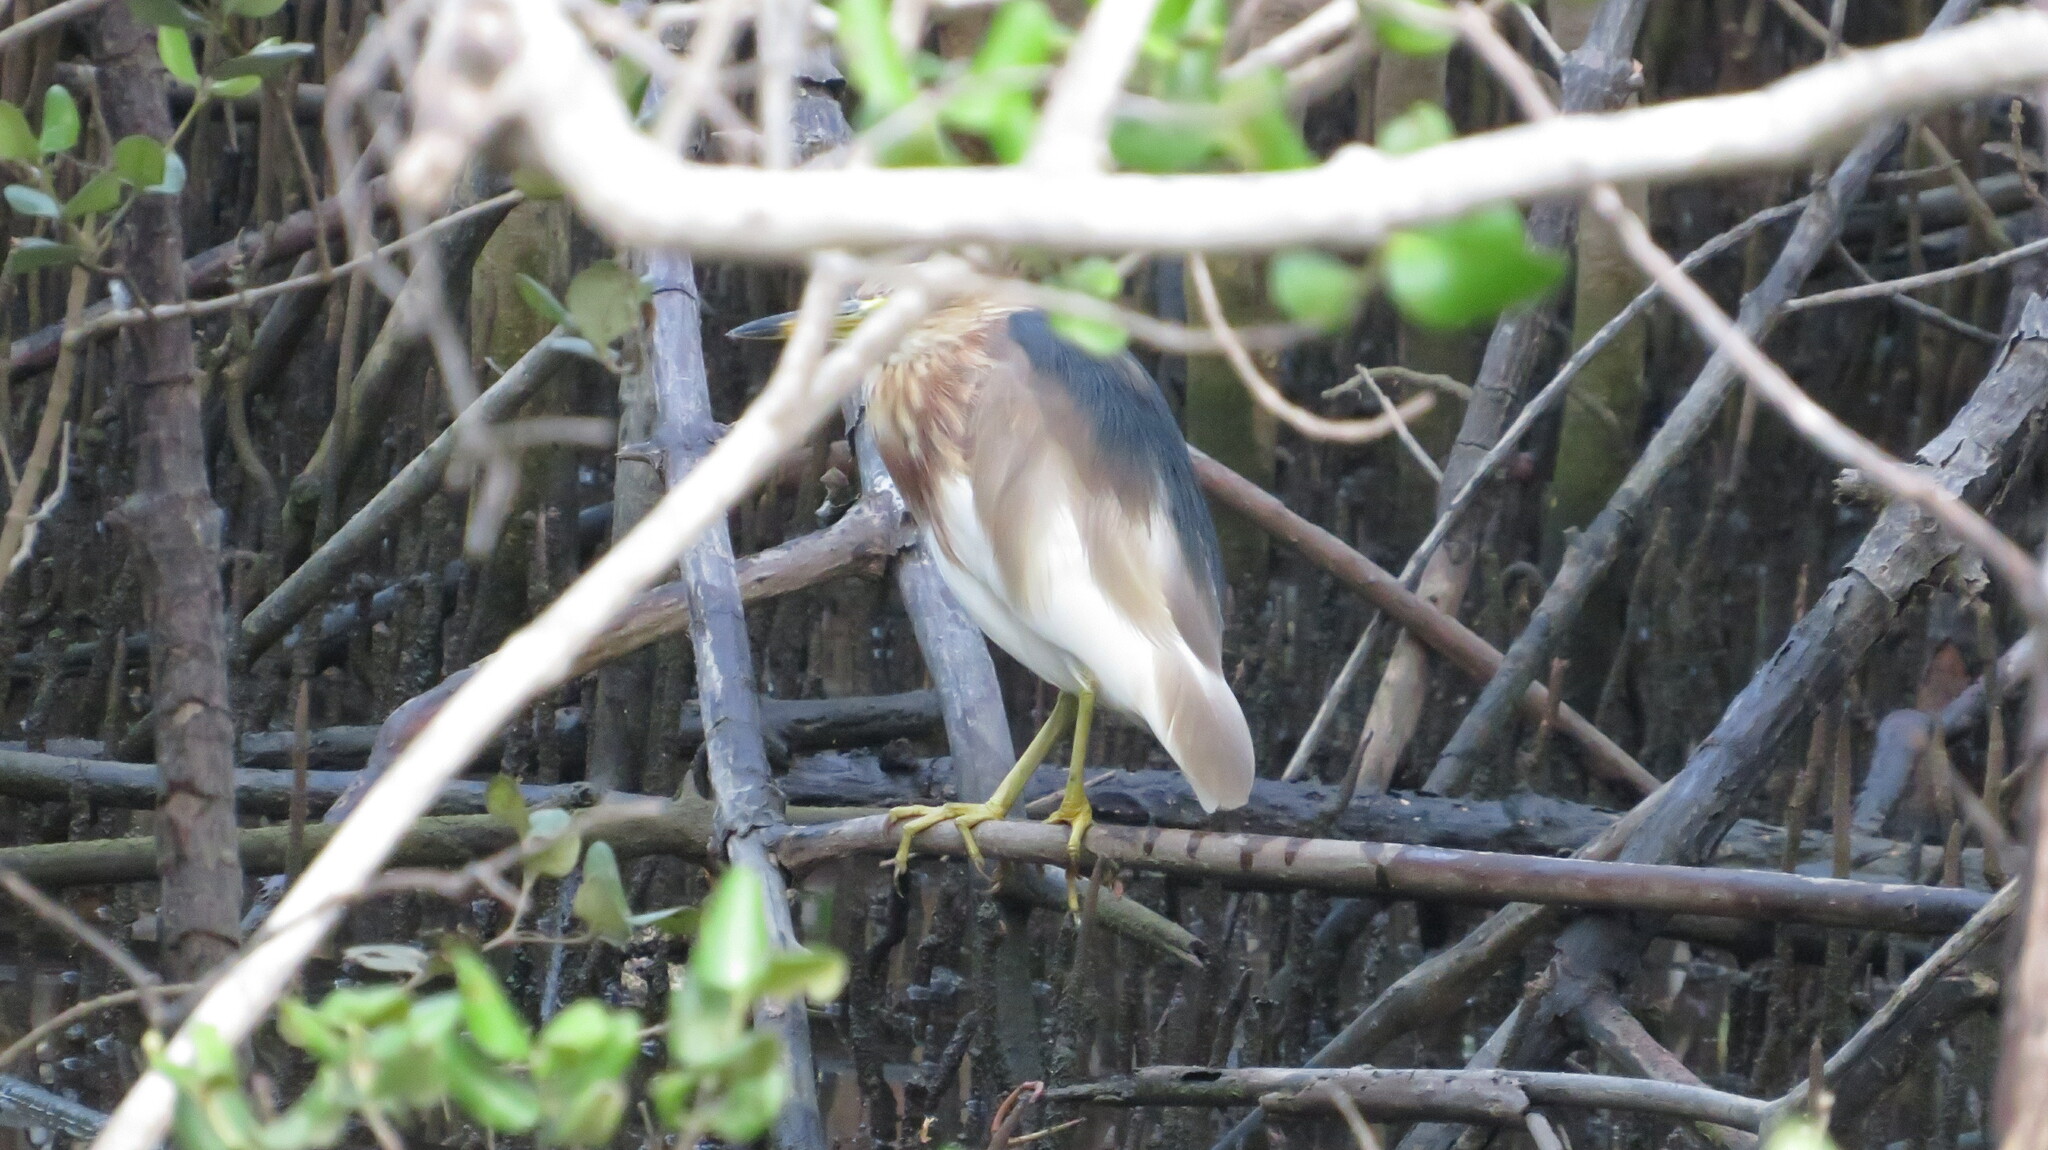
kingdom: Animalia
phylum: Chordata
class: Aves
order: Pelecaniformes
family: Ardeidae
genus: Ardeola
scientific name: Ardeola speciosa
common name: Javan pond heron
